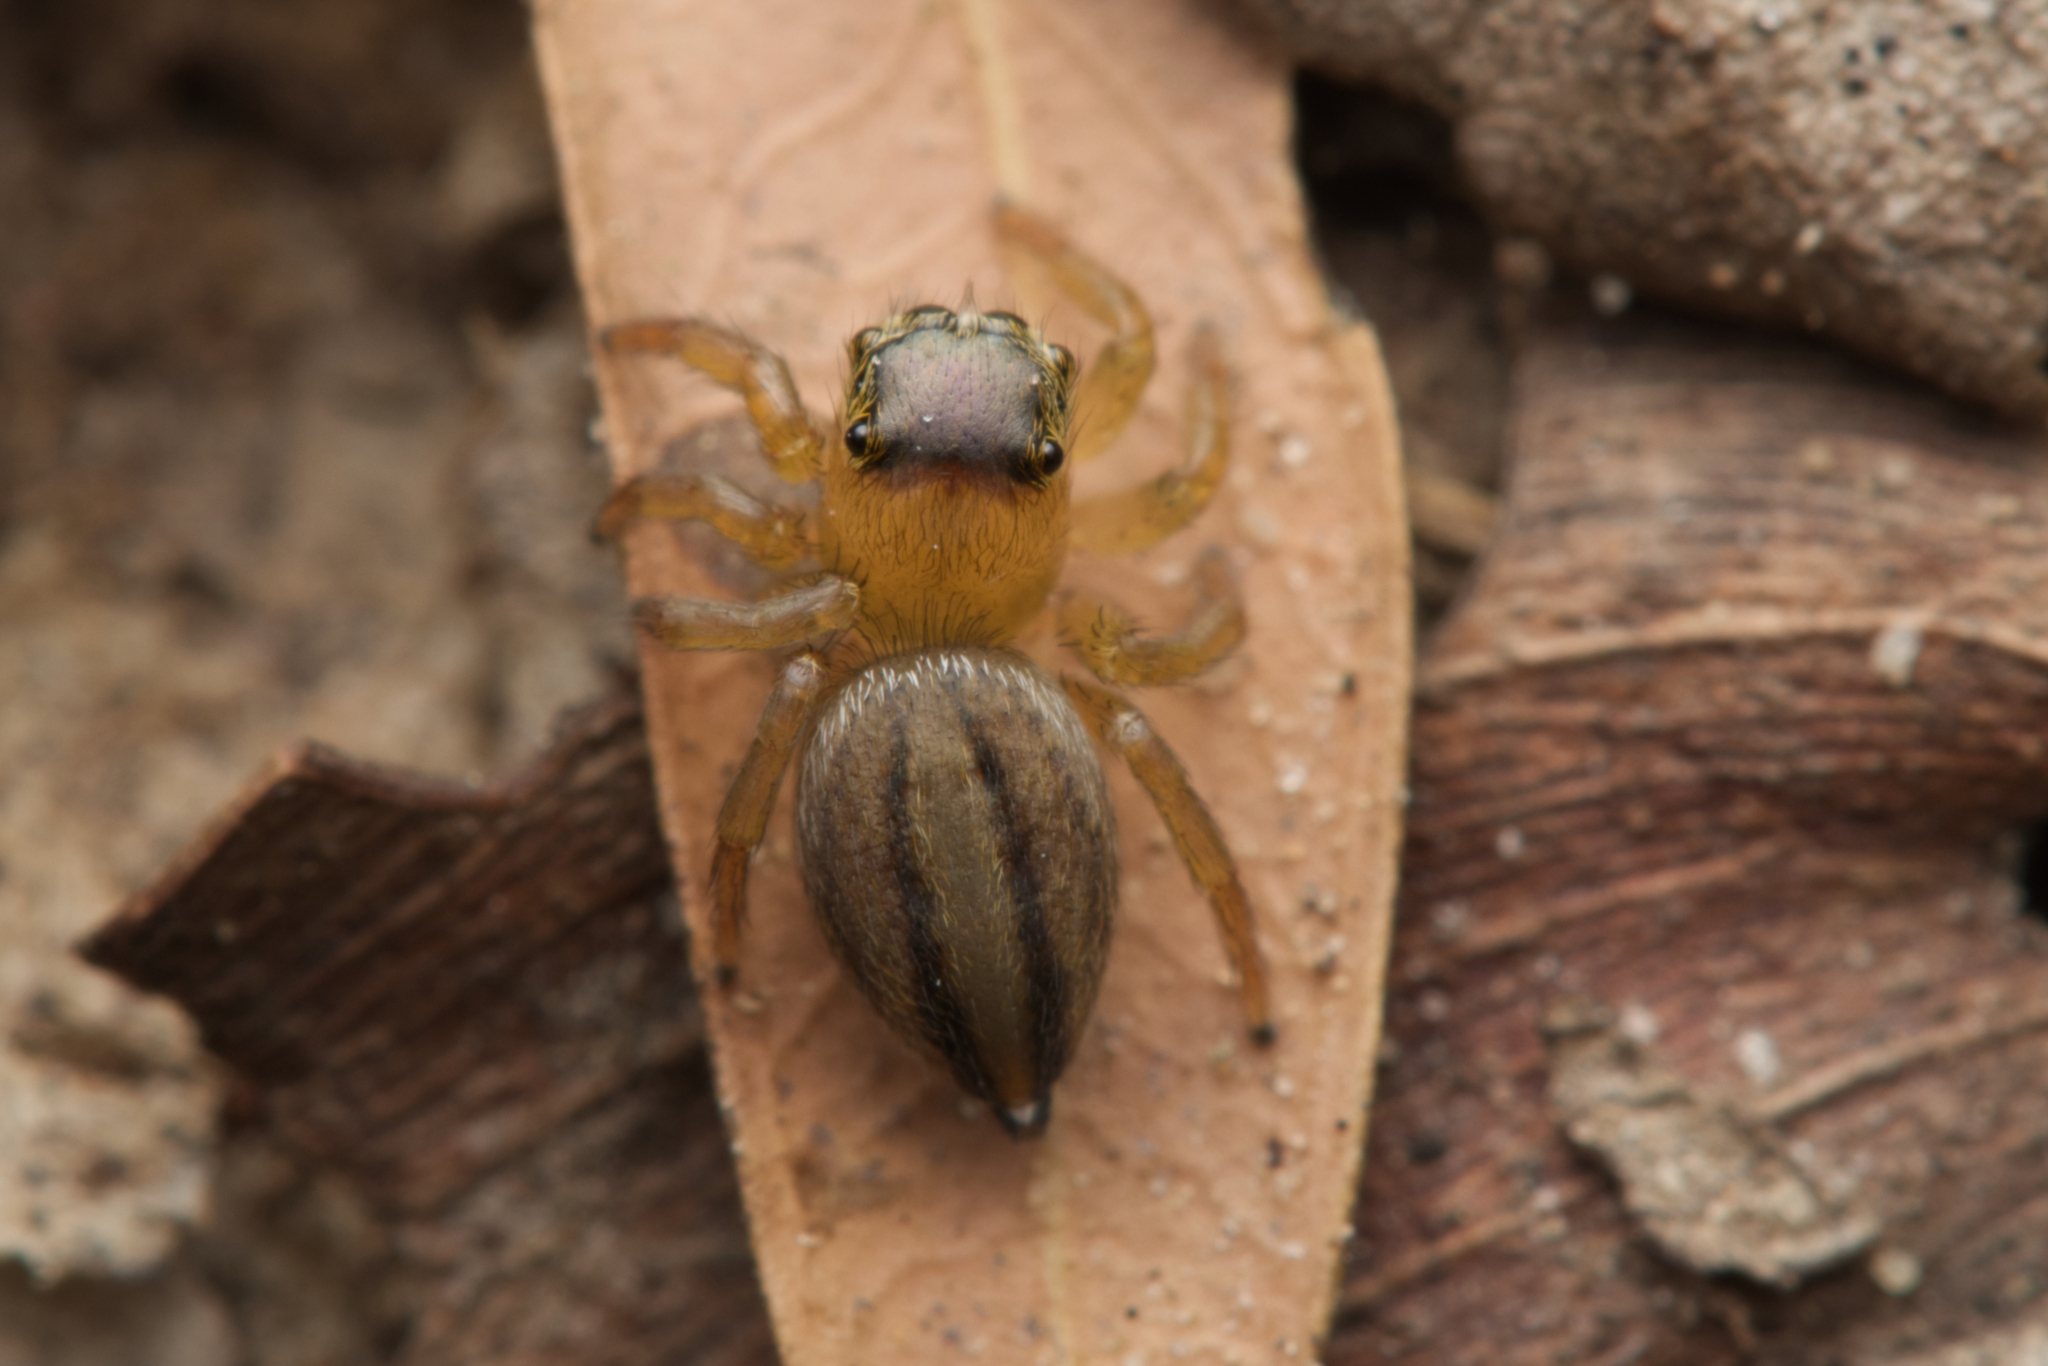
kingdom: Animalia
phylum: Arthropoda
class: Arachnida
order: Araneae
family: Salticidae
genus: Maratus
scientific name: Maratus scutulatus
